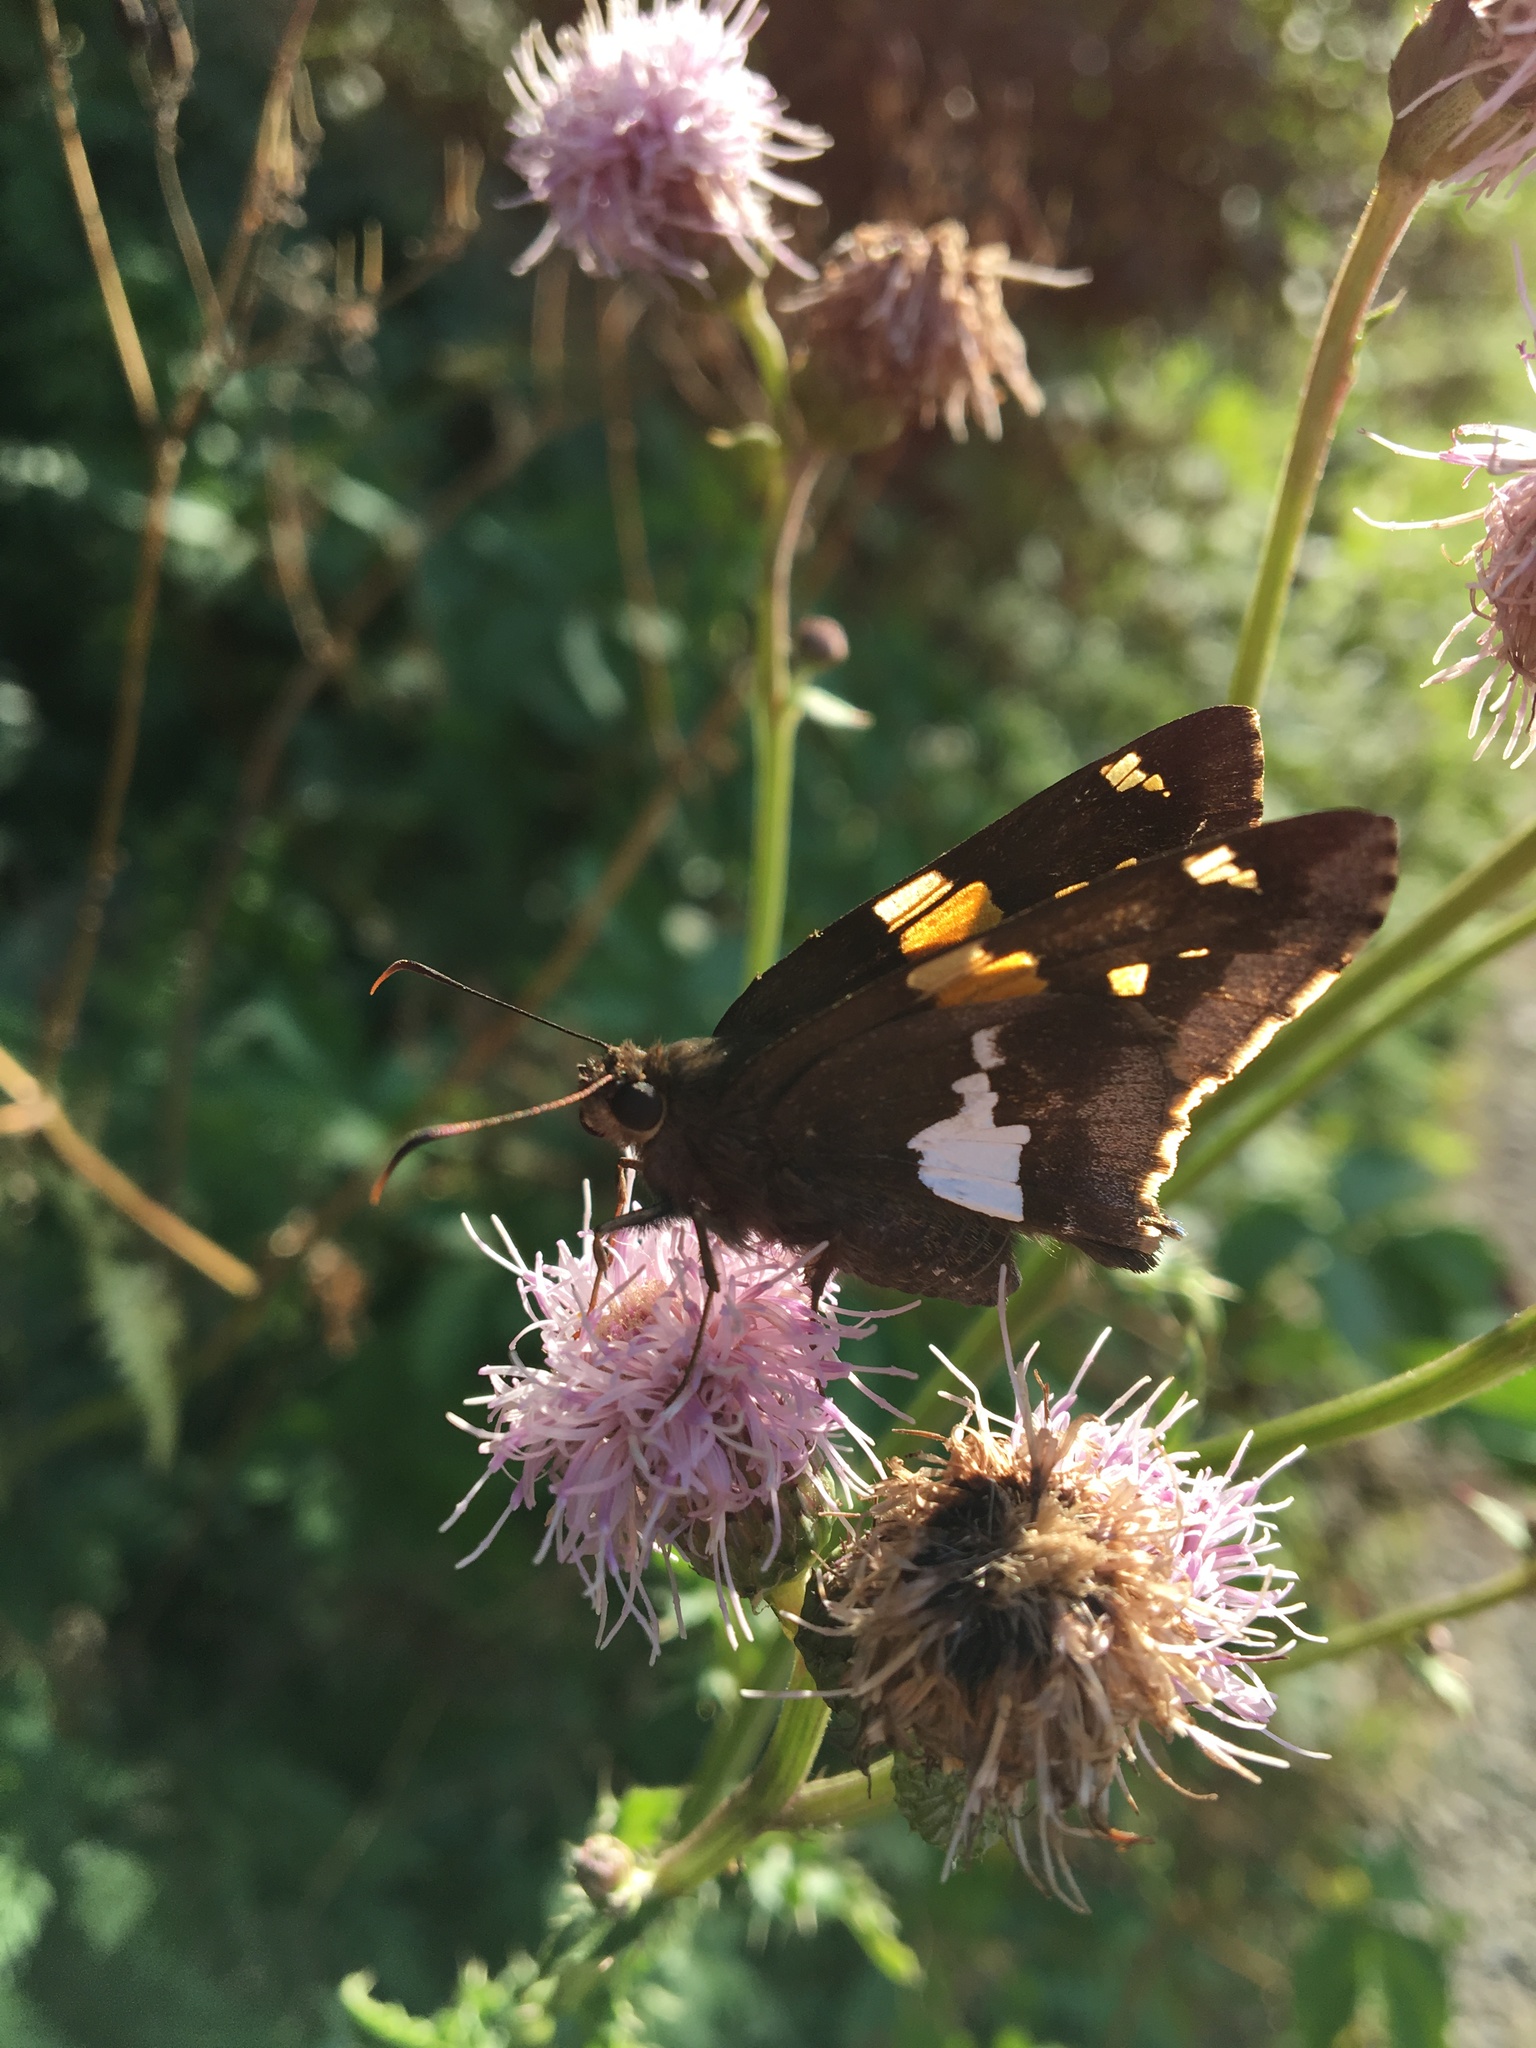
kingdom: Animalia
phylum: Arthropoda
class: Insecta
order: Lepidoptera
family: Hesperiidae
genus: Epargyreus
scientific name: Epargyreus clarus
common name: Silver-spotted skipper
